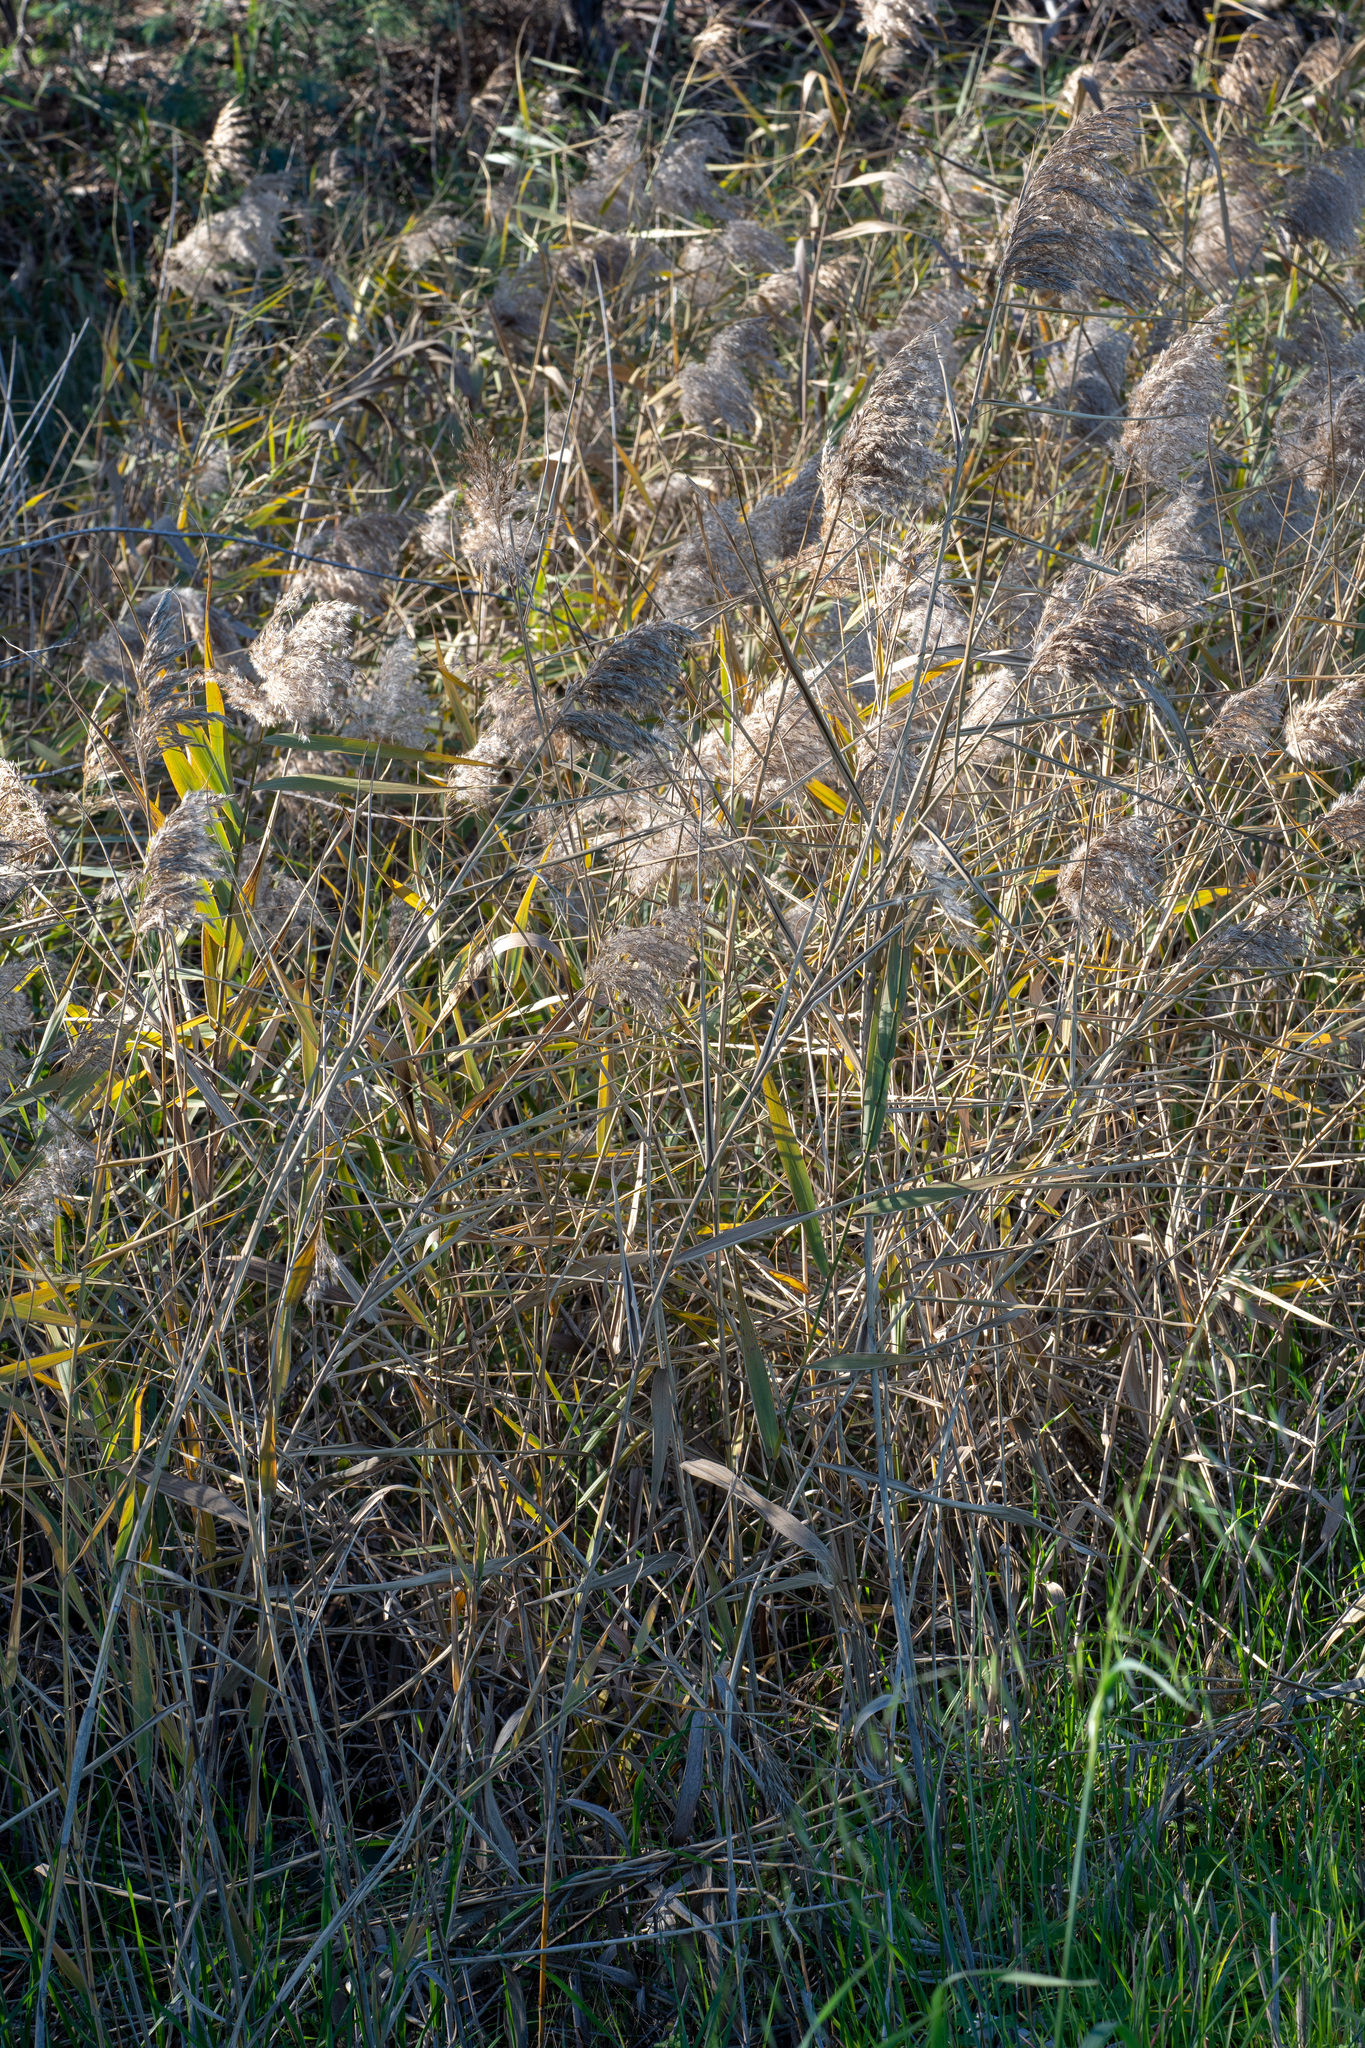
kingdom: Plantae
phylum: Tracheophyta
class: Liliopsida
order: Poales
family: Poaceae
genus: Phragmites
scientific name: Phragmites australis
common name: Common reed
